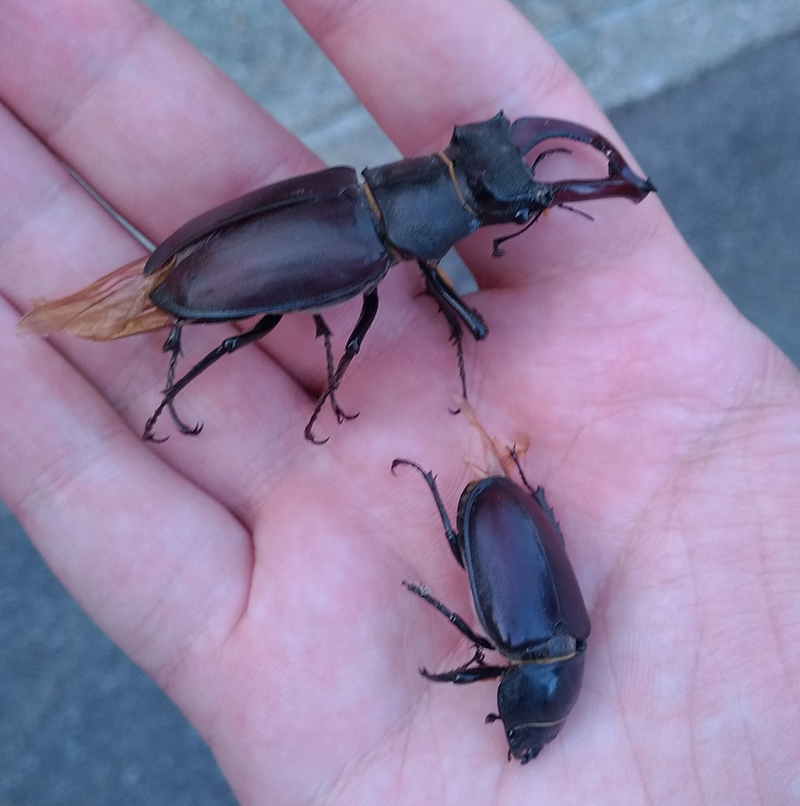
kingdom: Animalia
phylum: Arthropoda
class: Insecta
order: Coleoptera
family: Lucanidae
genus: Lucanus
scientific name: Lucanus cervus
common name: Stag beetle
